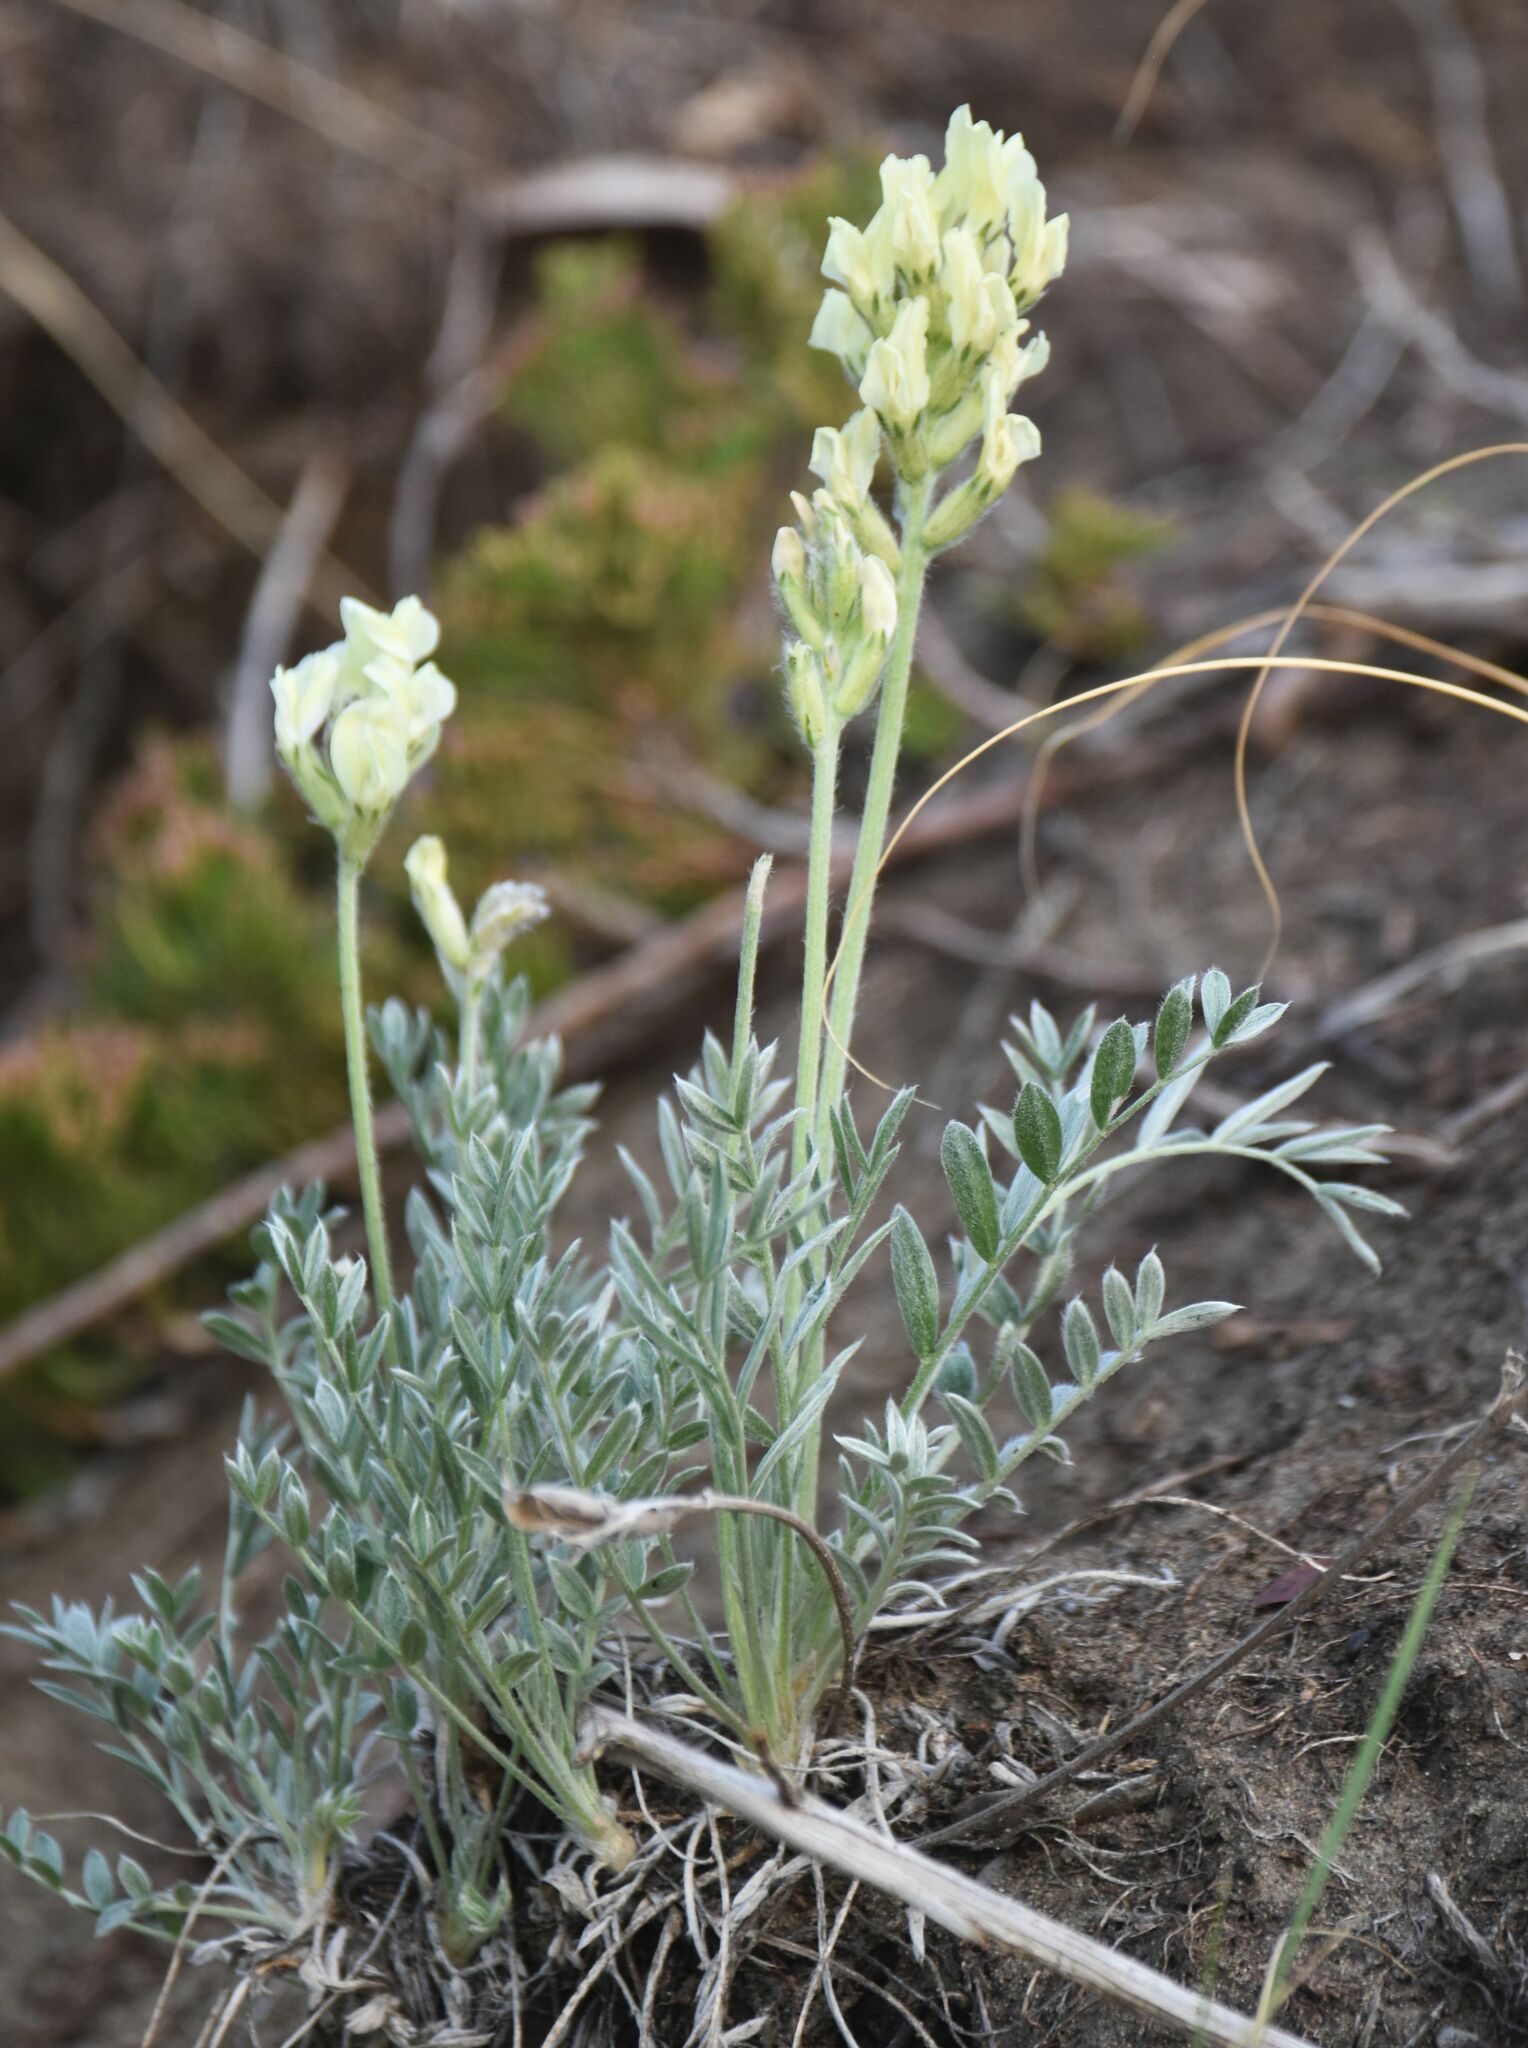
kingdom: Plantae
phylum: Tracheophyta
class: Magnoliopsida
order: Fabales
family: Fabaceae
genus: Oxytropis
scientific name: Oxytropis sericea
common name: Silky locoweed
